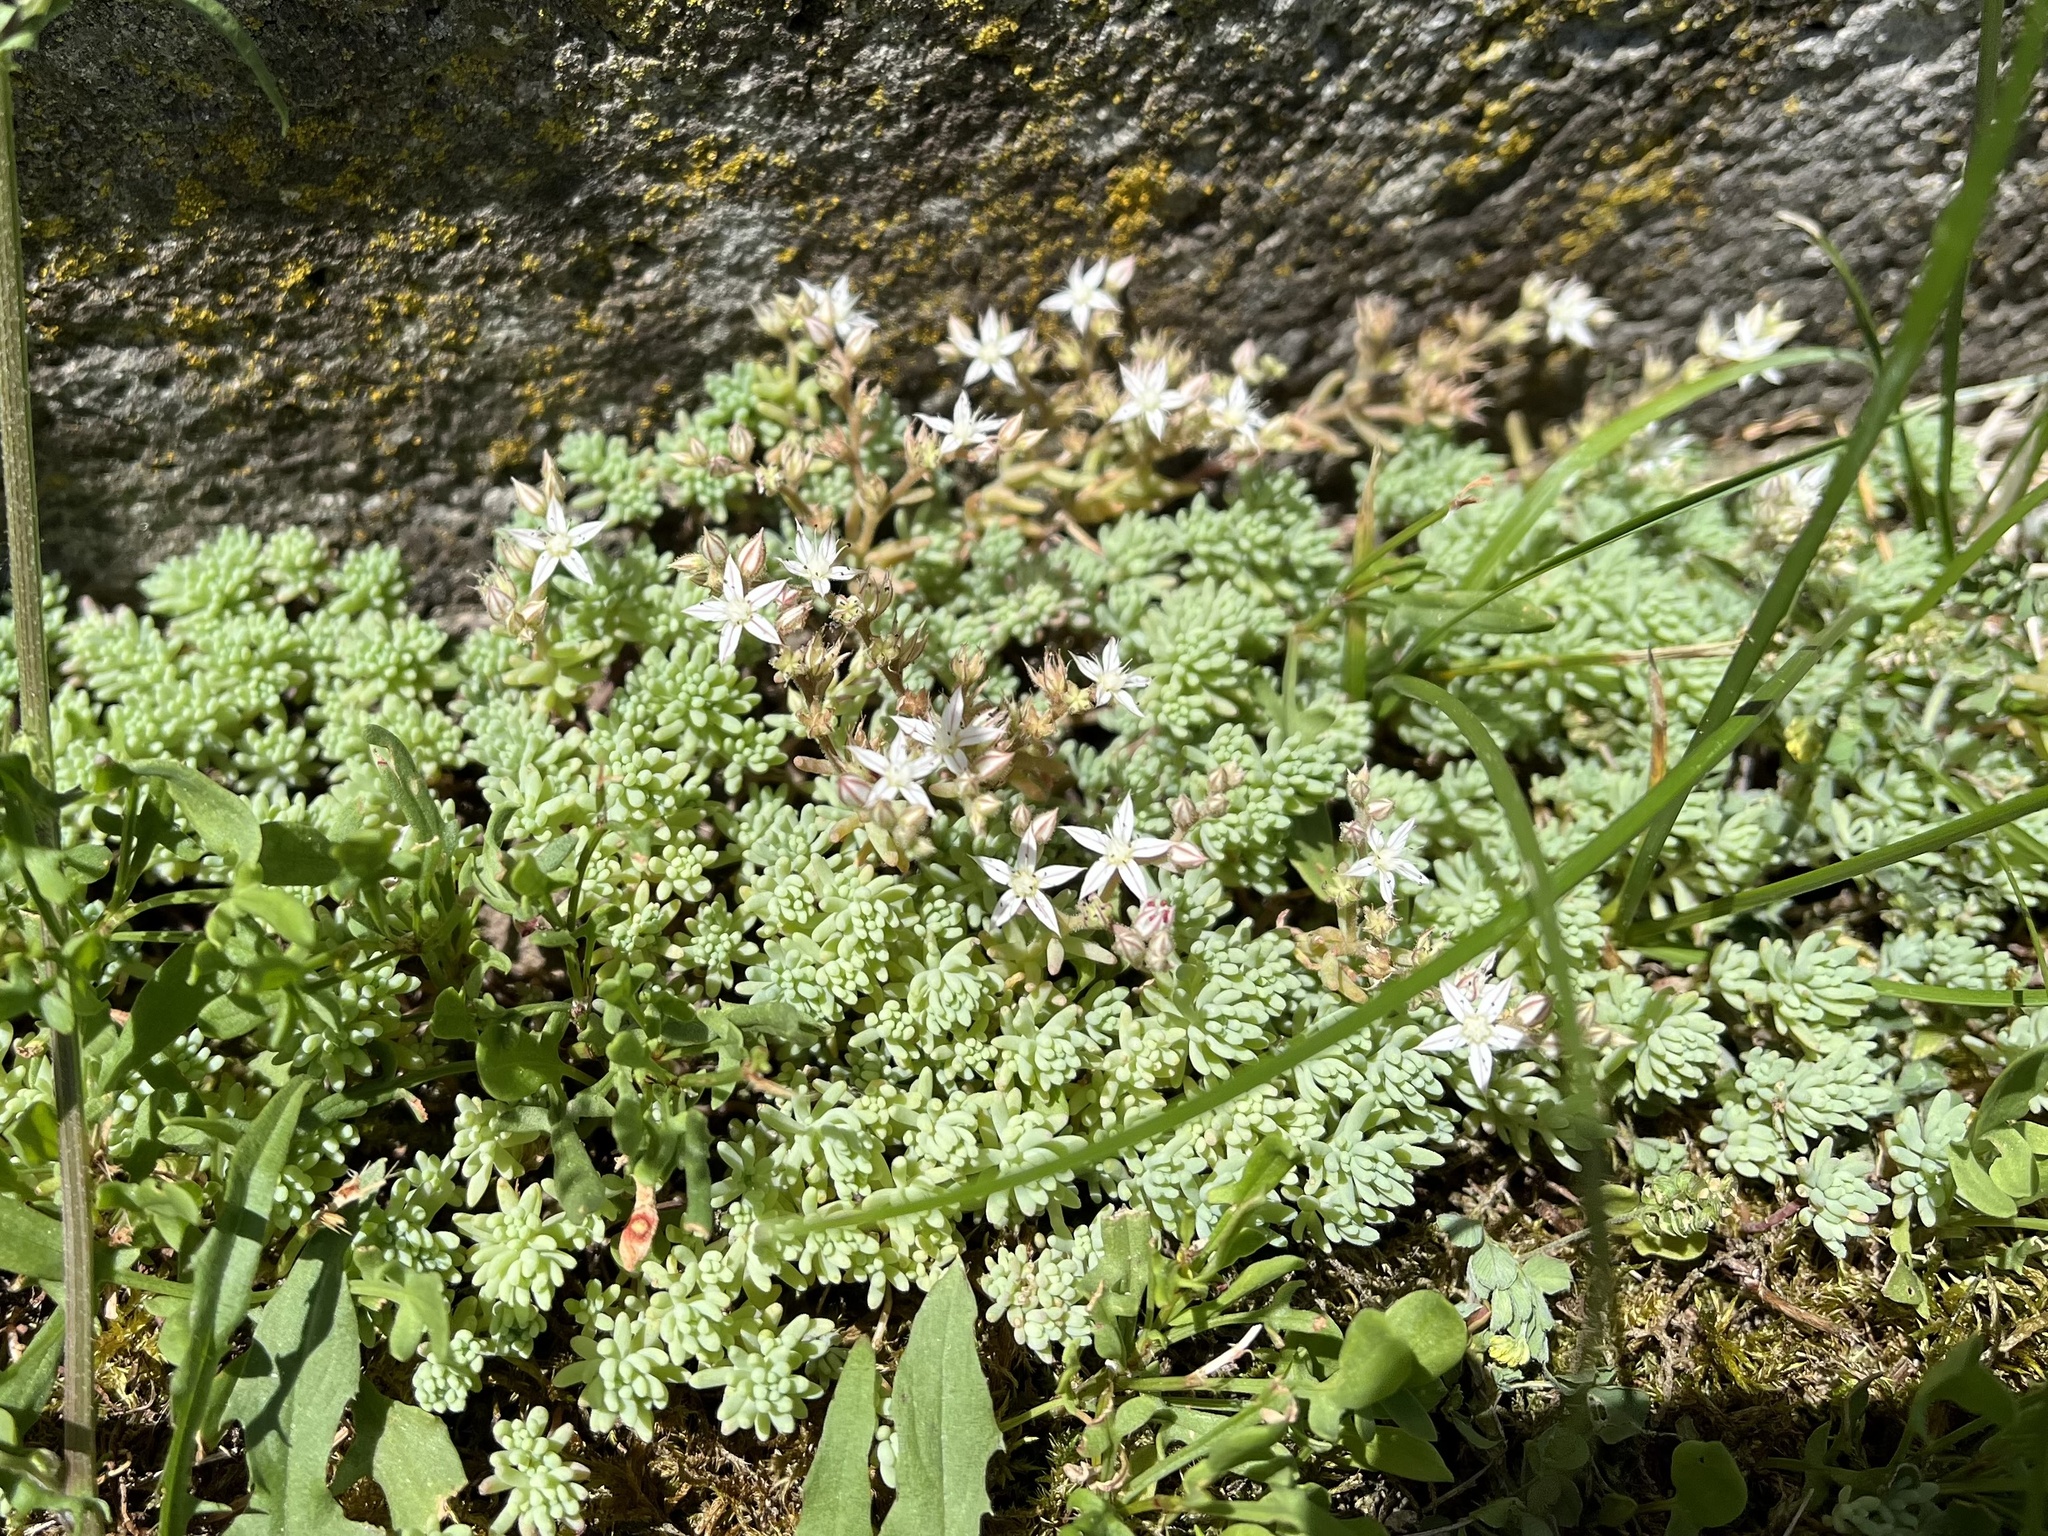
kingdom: Plantae
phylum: Tracheophyta
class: Magnoliopsida
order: Saxifragales
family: Crassulaceae
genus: Sedum
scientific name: Sedum pallidum
